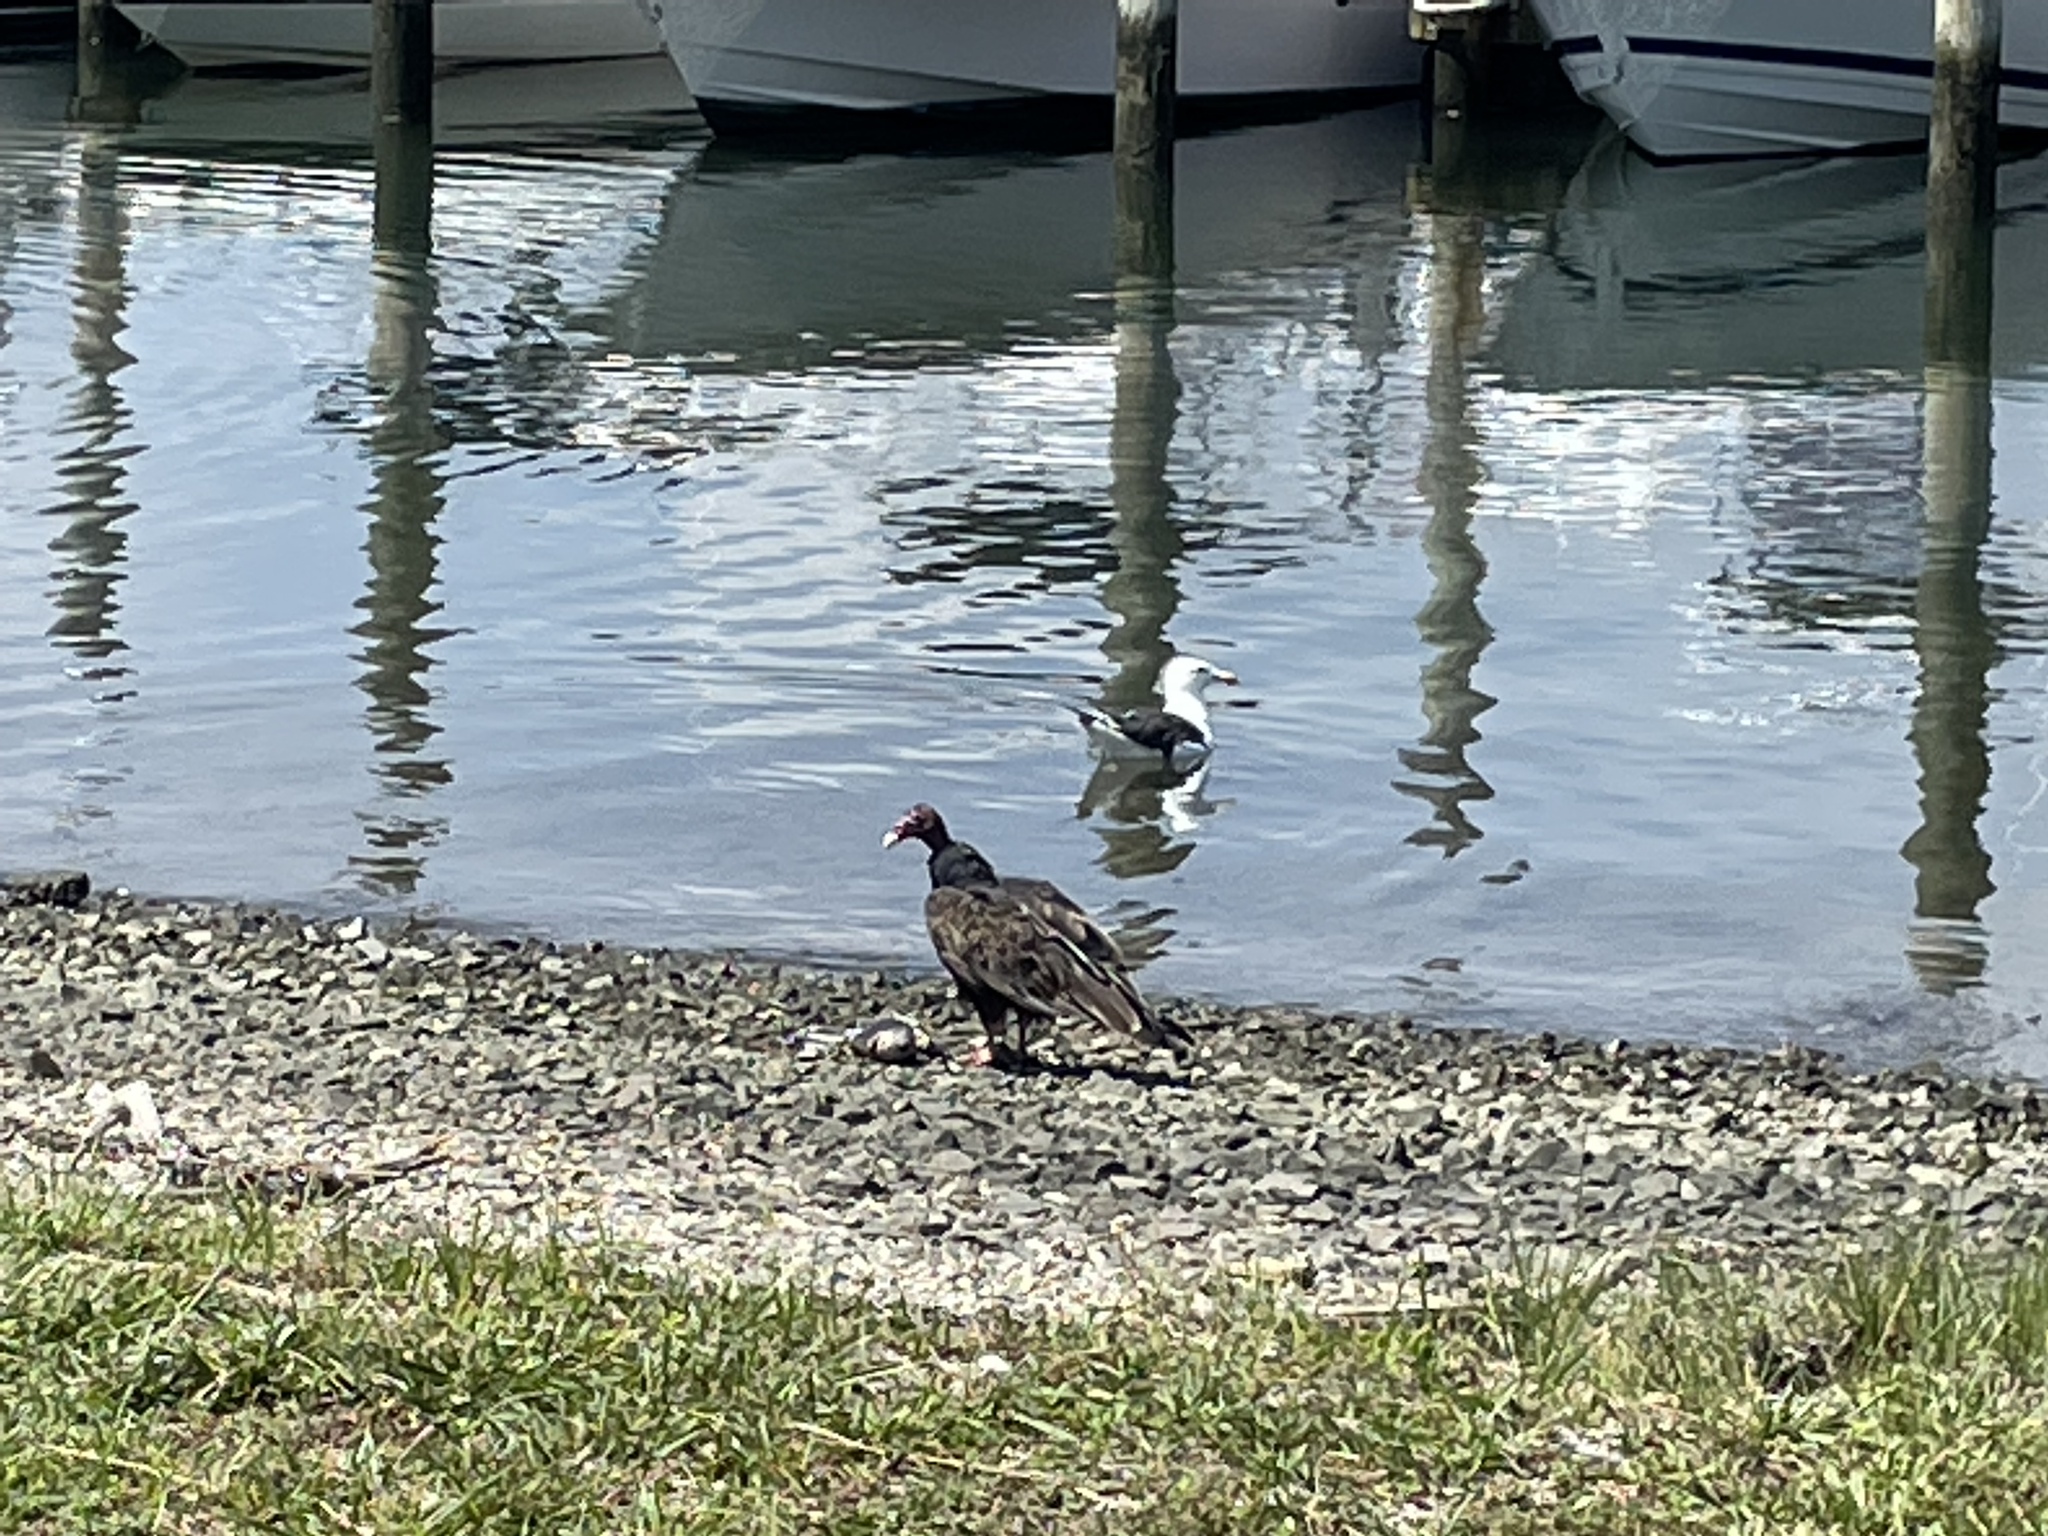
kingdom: Animalia
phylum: Chordata
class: Aves
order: Accipitriformes
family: Cathartidae
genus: Cathartes
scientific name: Cathartes aura
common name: Turkey vulture
